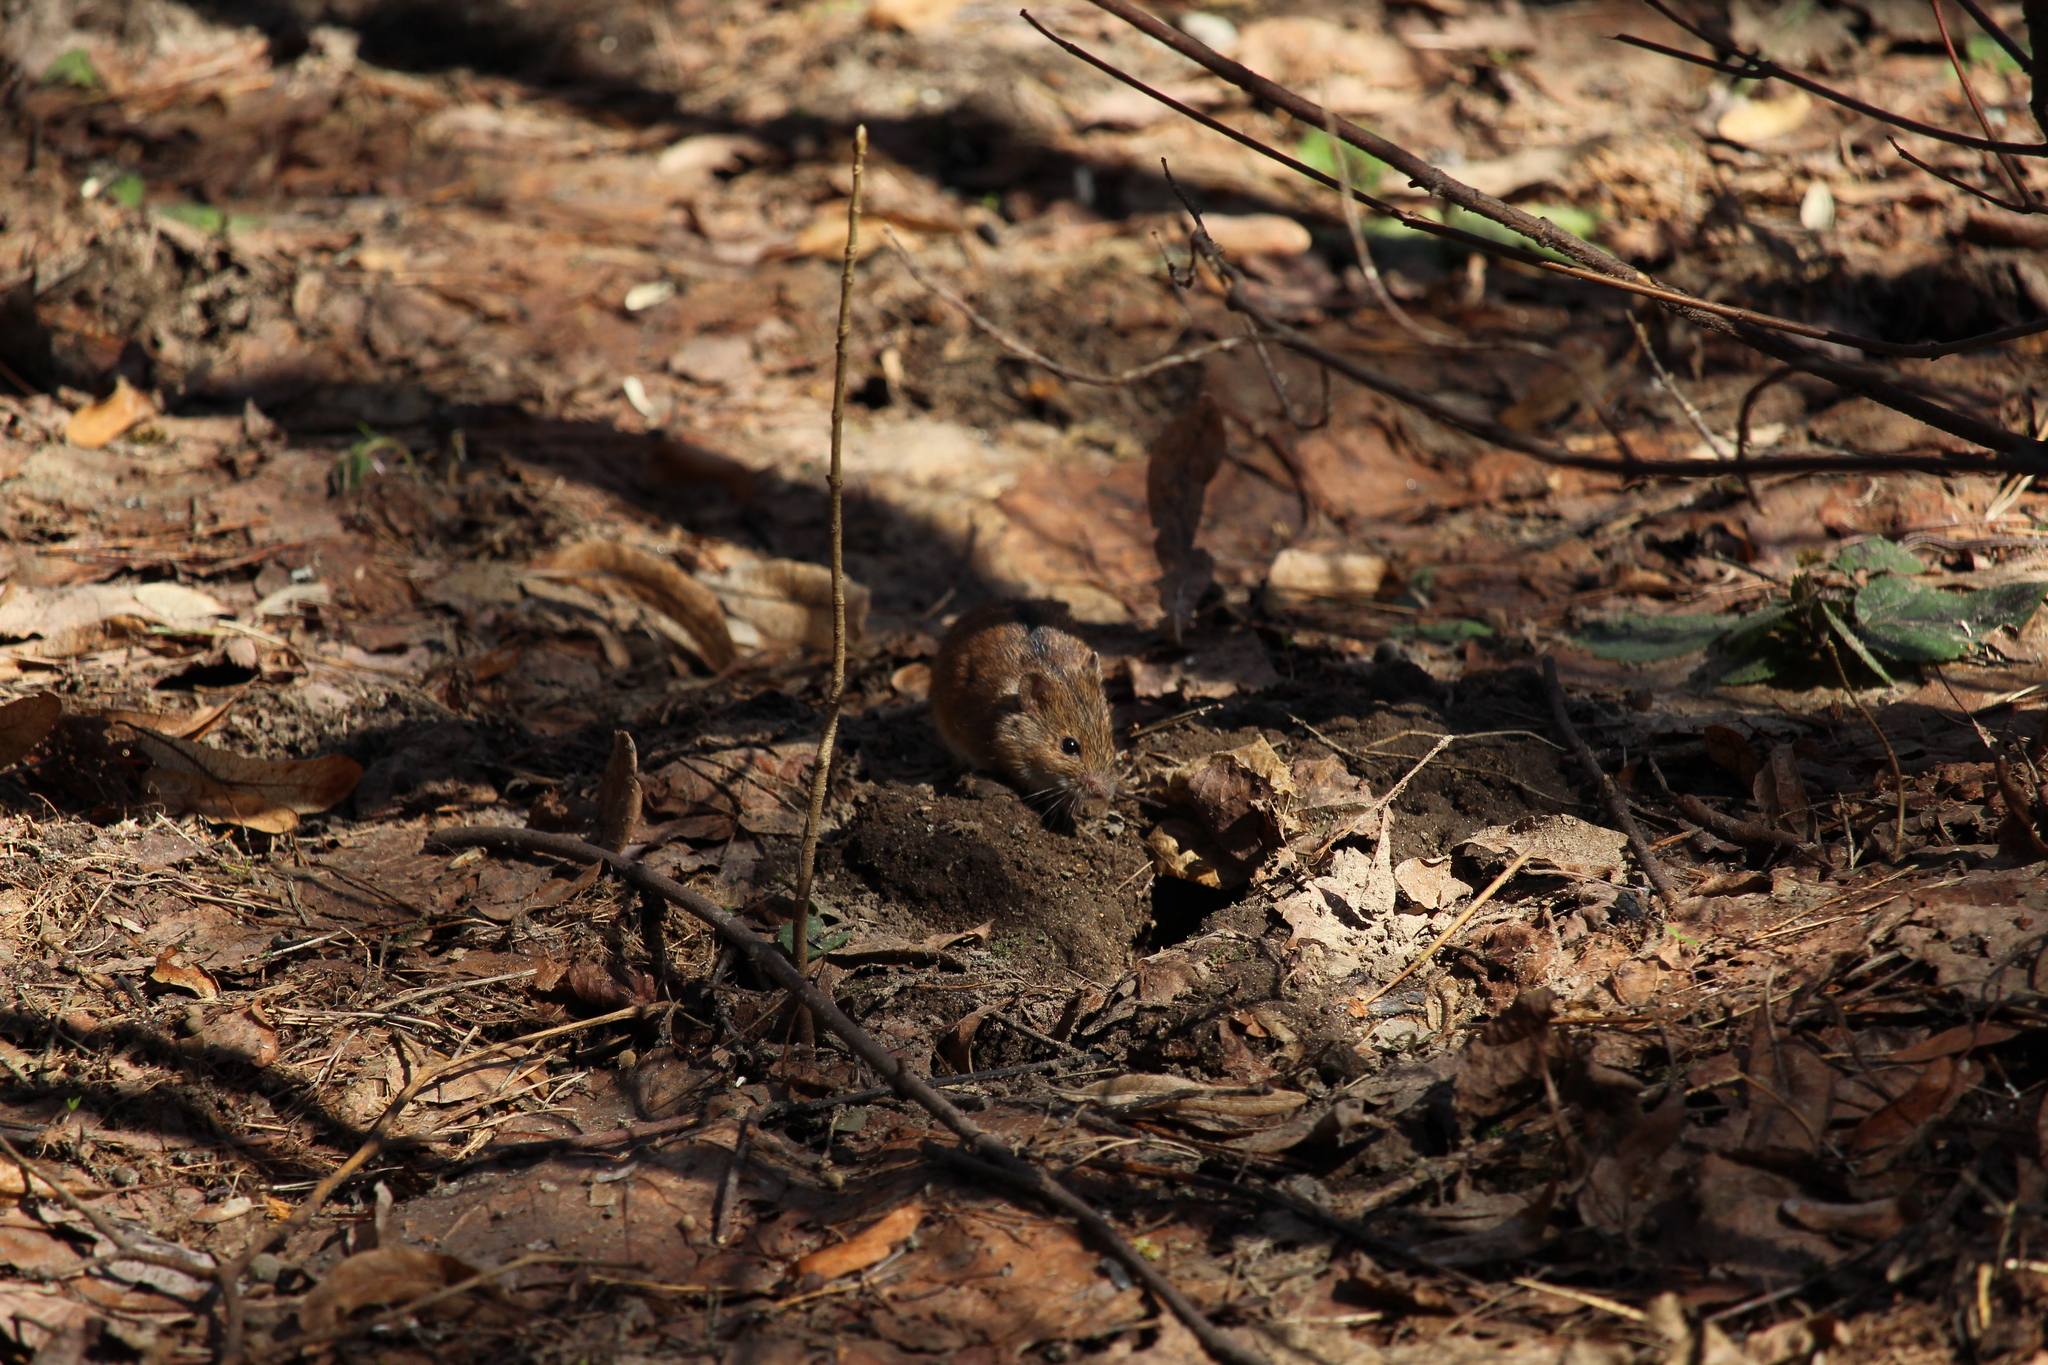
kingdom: Animalia
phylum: Chordata
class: Mammalia
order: Rodentia
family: Muridae
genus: Apodemus
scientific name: Apodemus agrarius
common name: Striped field mouse
